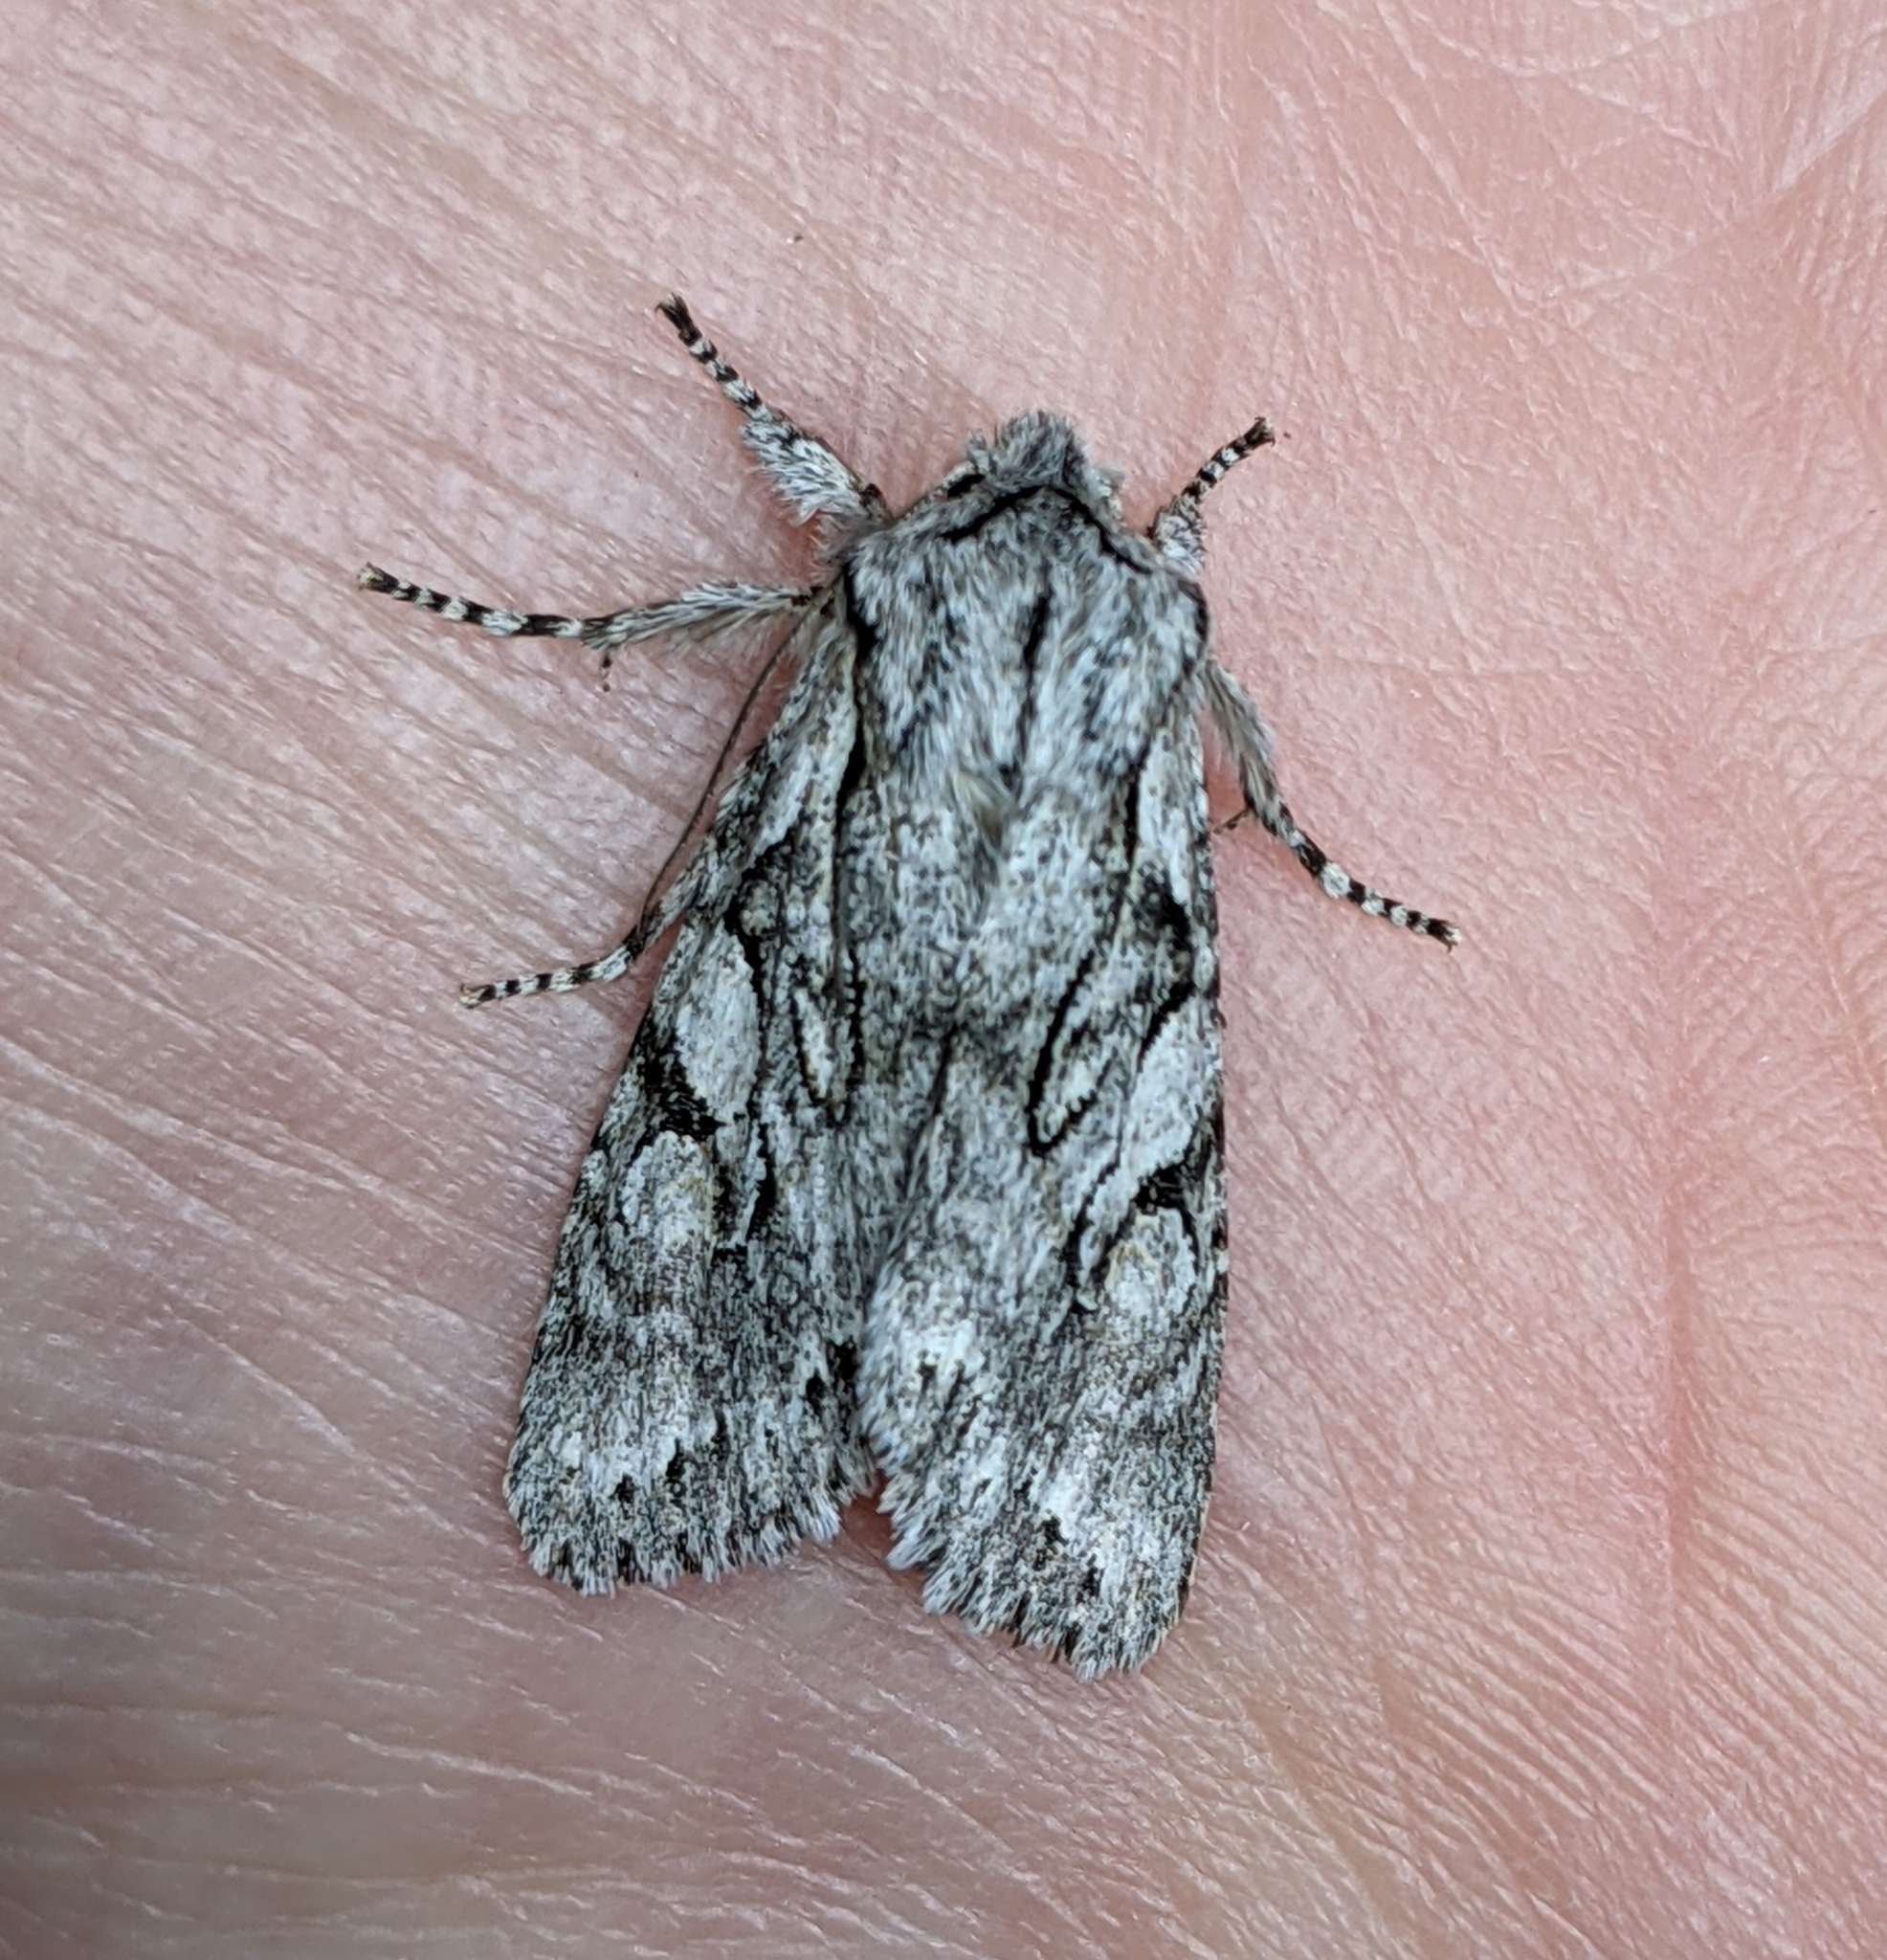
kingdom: Animalia
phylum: Arthropoda
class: Insecta
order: Lepidoptera
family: Noctuidae
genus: Egira
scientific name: Egira simplex
